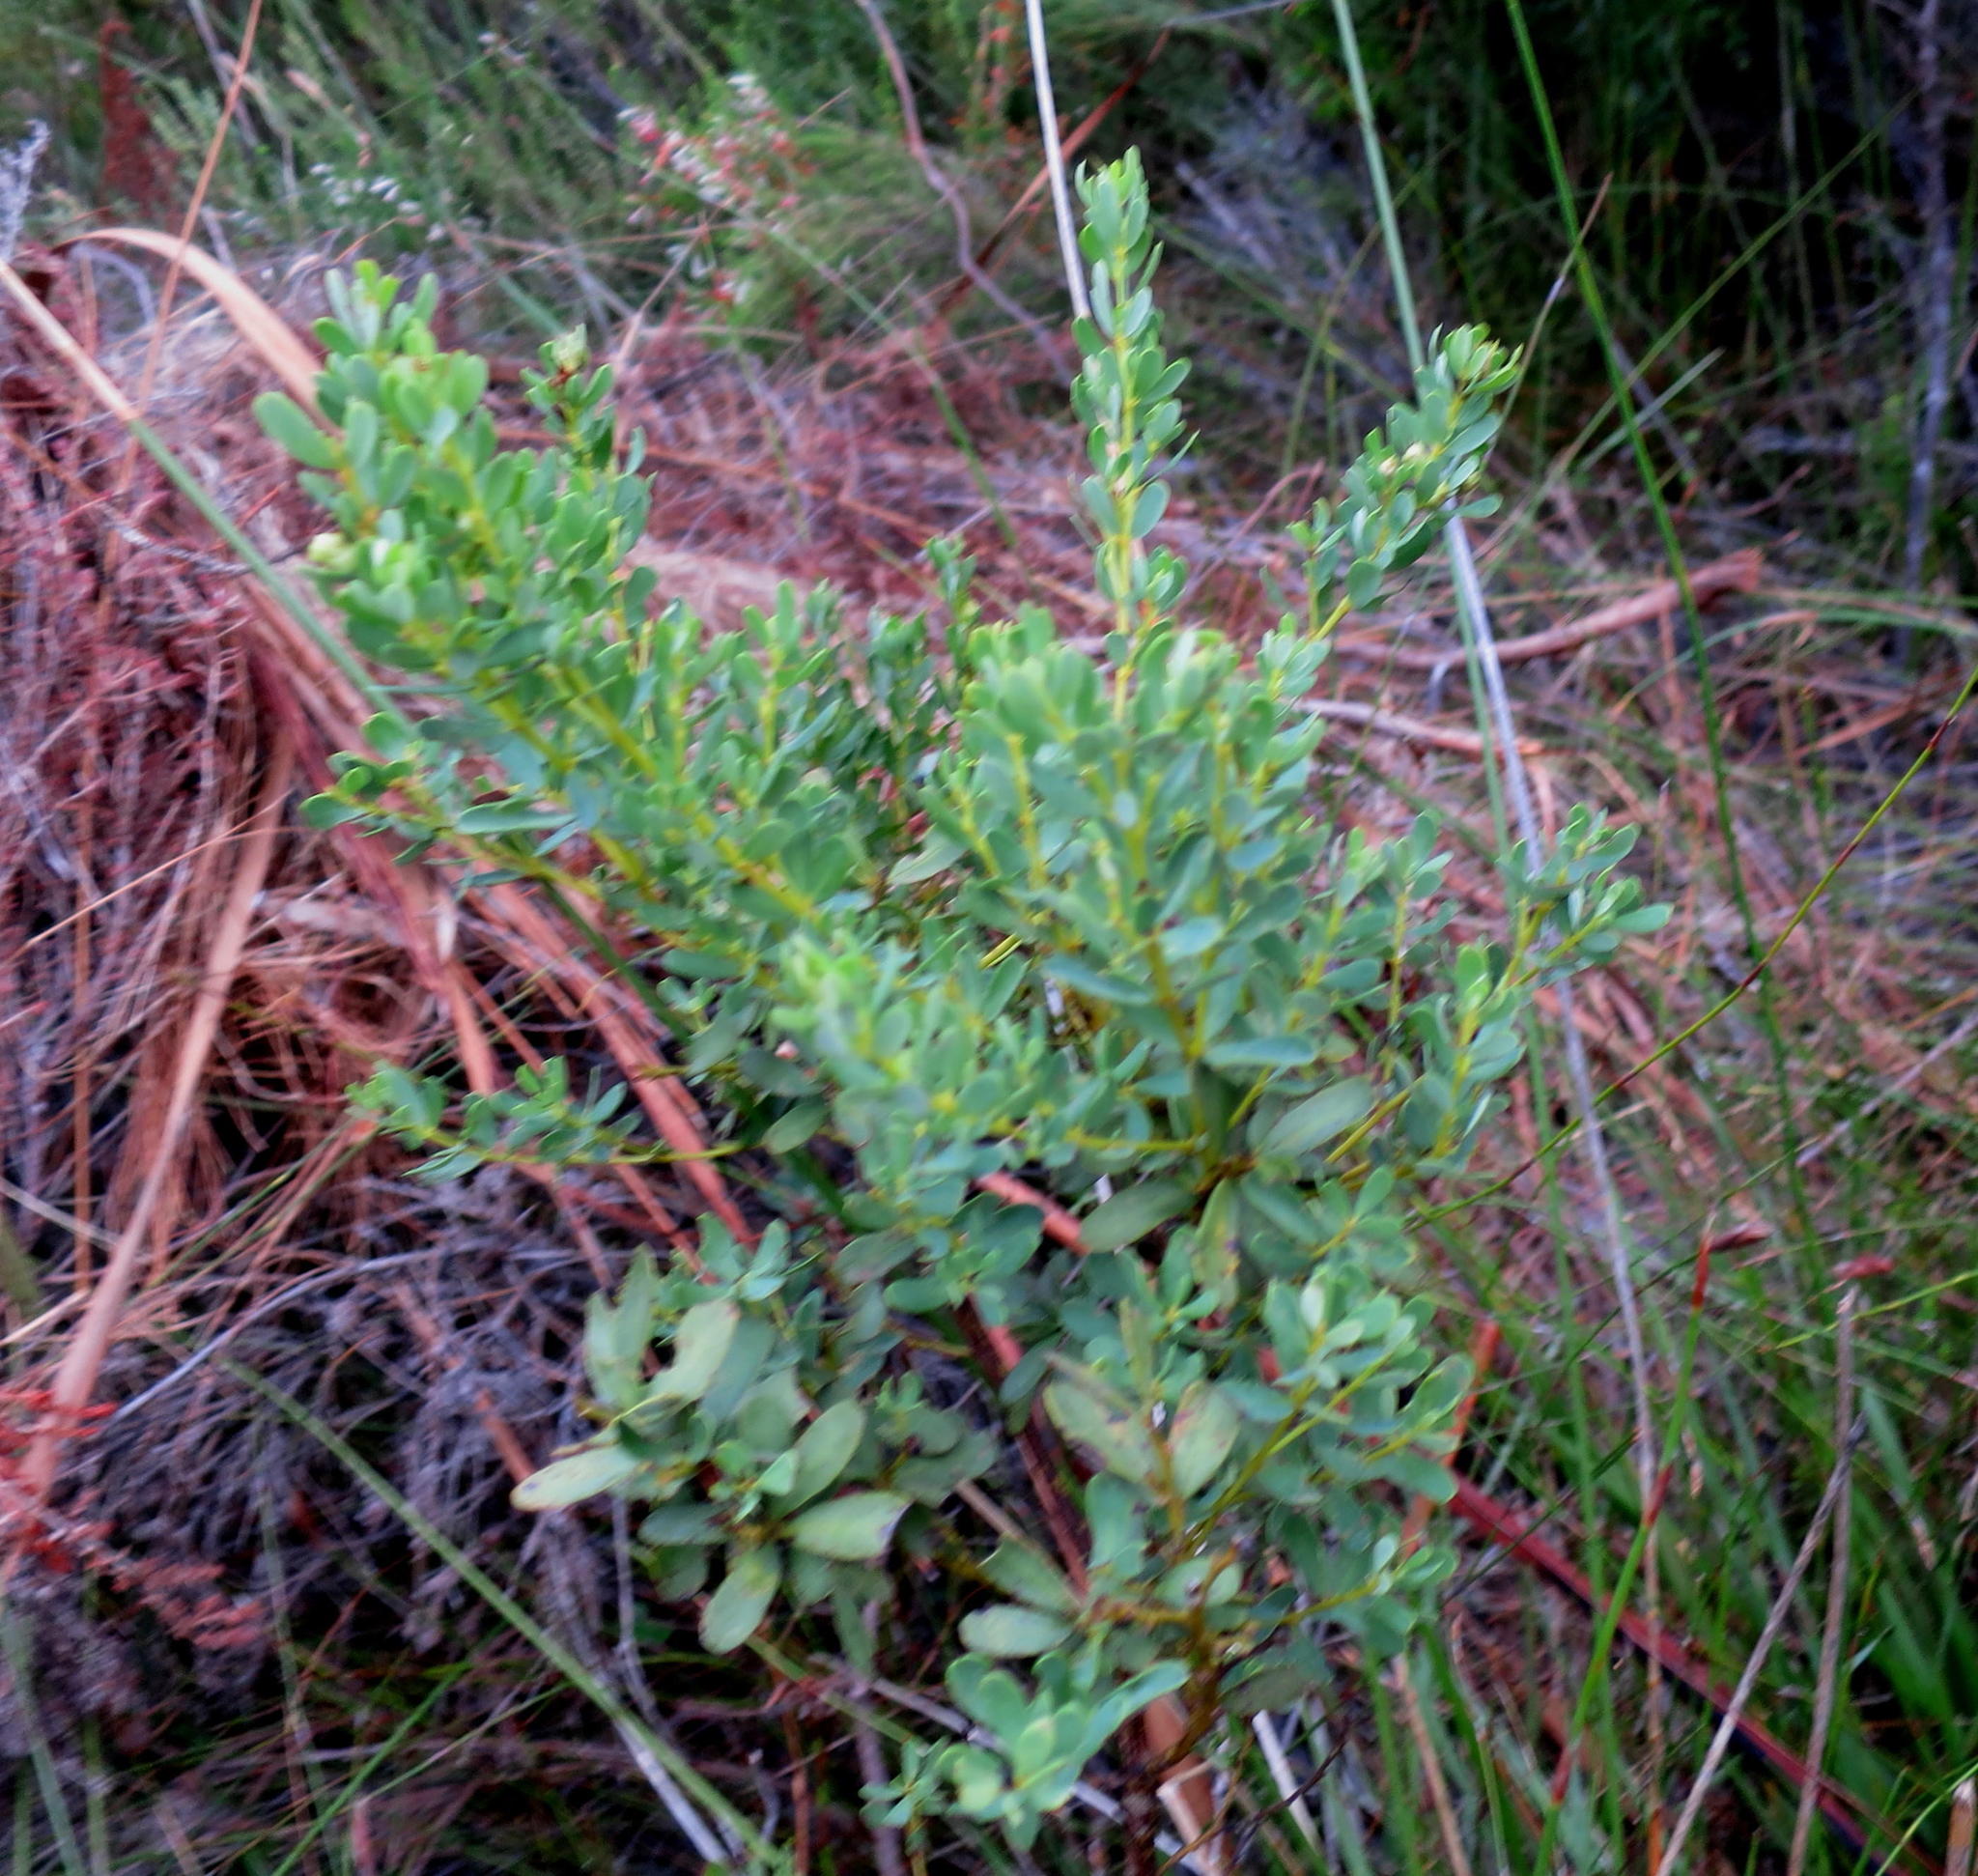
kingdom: Plantae
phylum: Tracheophyta
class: Magnoliopsida
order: Fabales
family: Fabaceae
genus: Cyclopia
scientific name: Cyclopia subternata
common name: Honeybush tea
